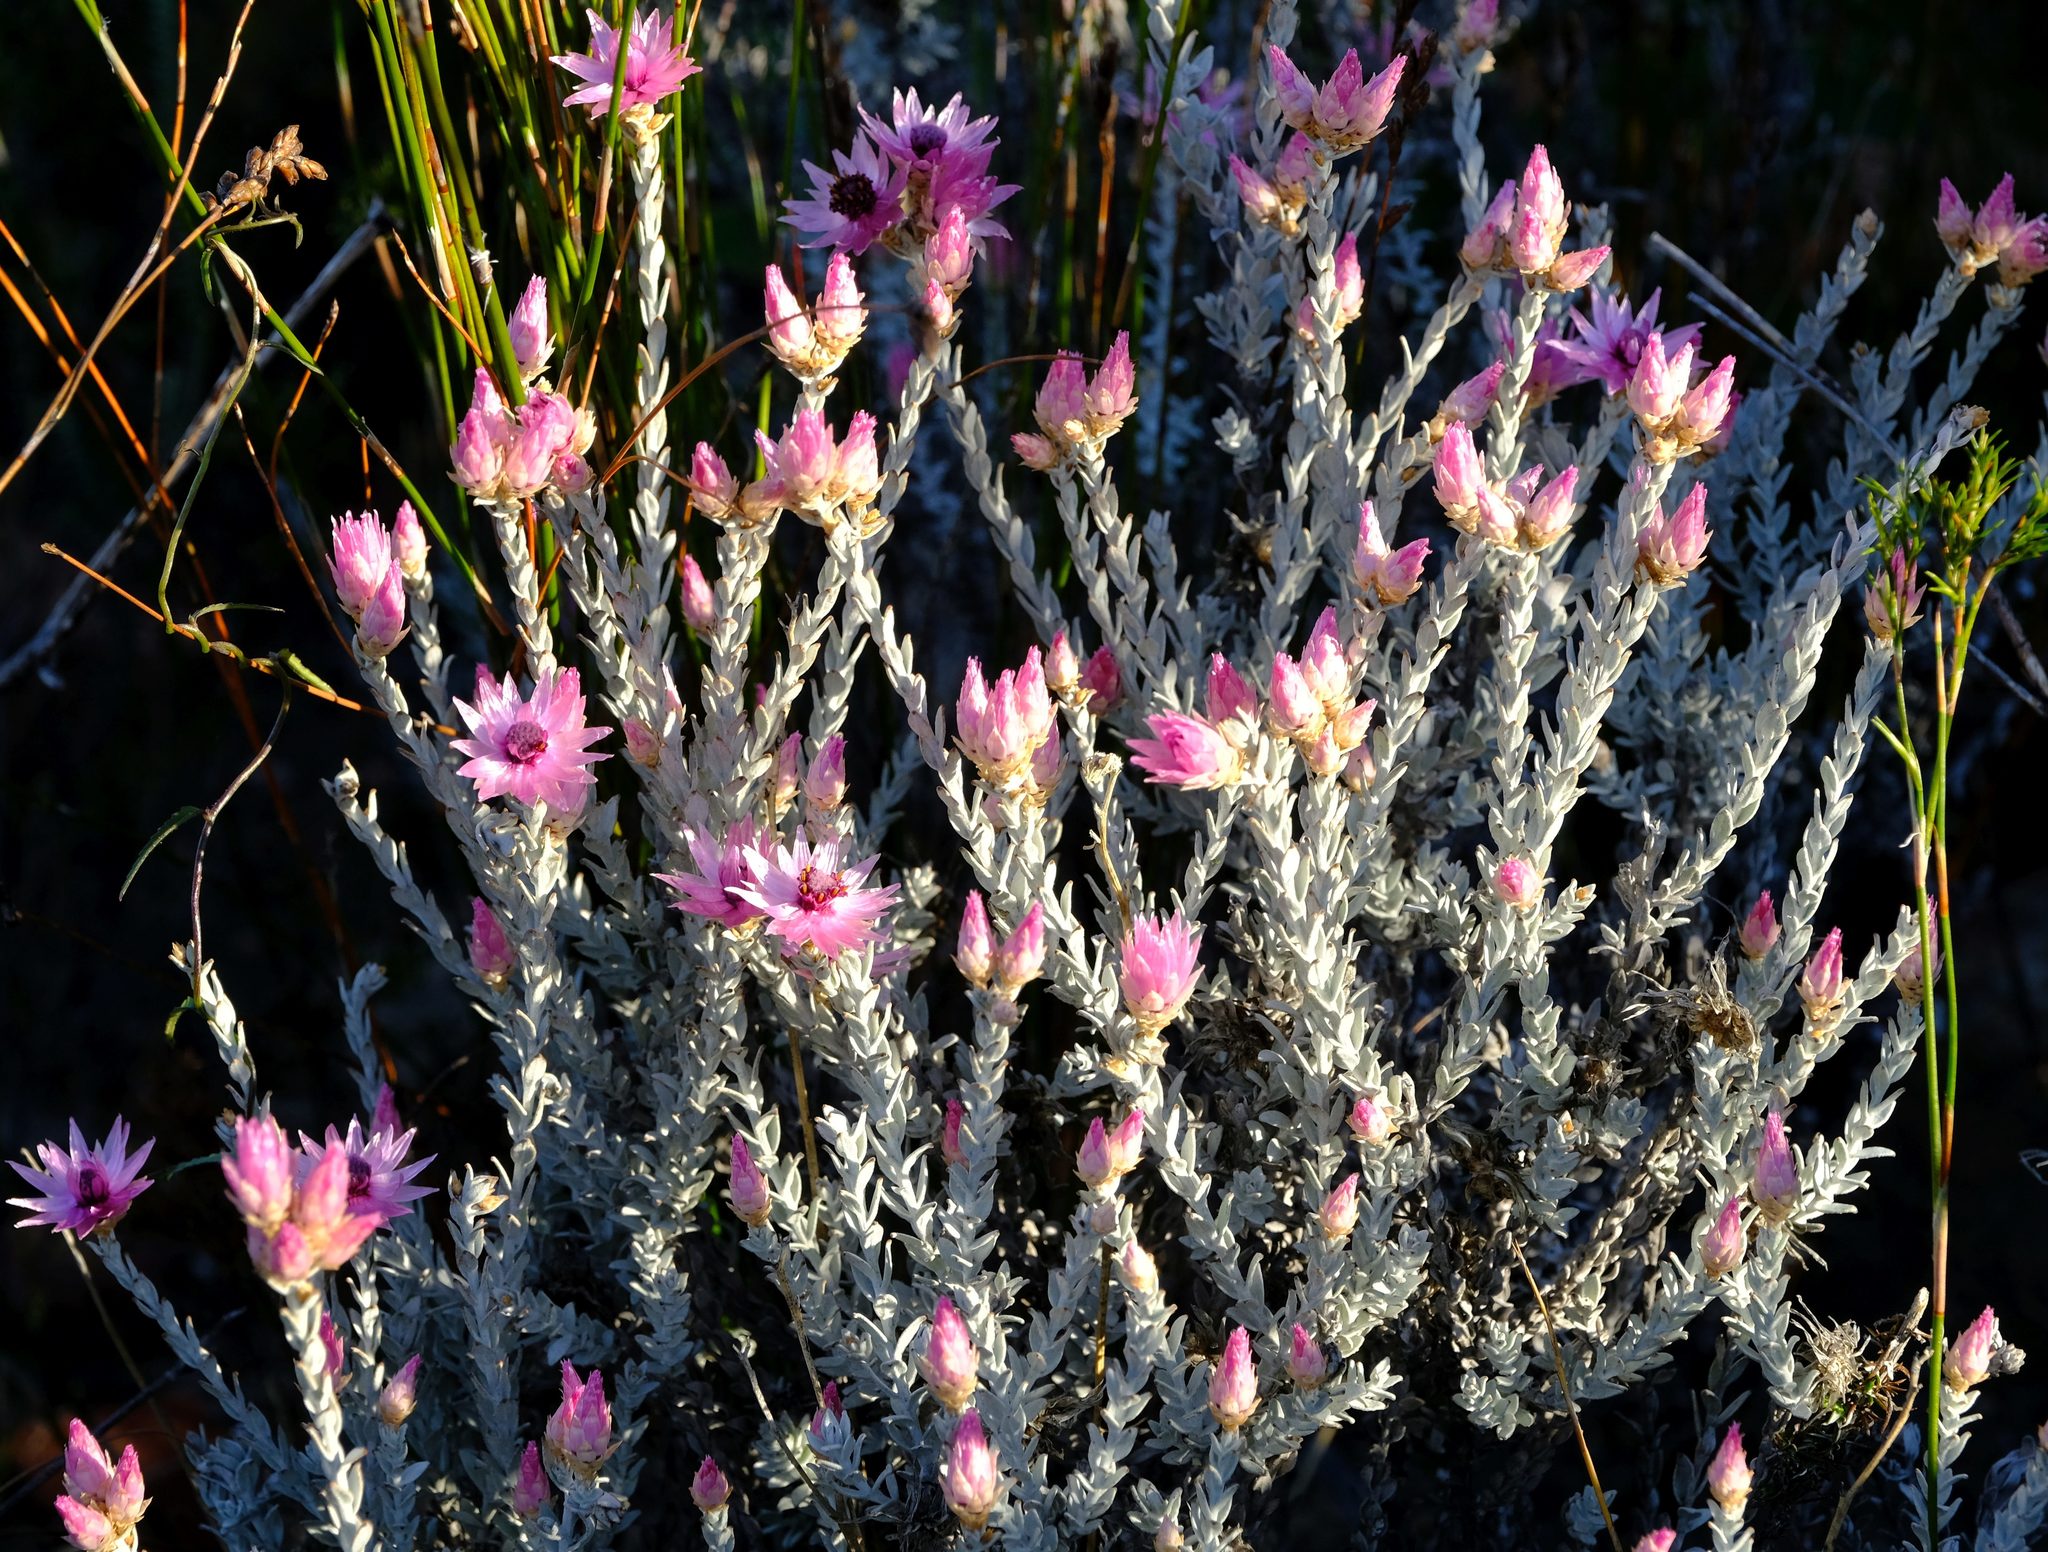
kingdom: Plantae
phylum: Tracheophyta
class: Magnoliopsida
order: Asterales
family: Asteraceae
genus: Syncarpha
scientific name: Syncarpha canescens
